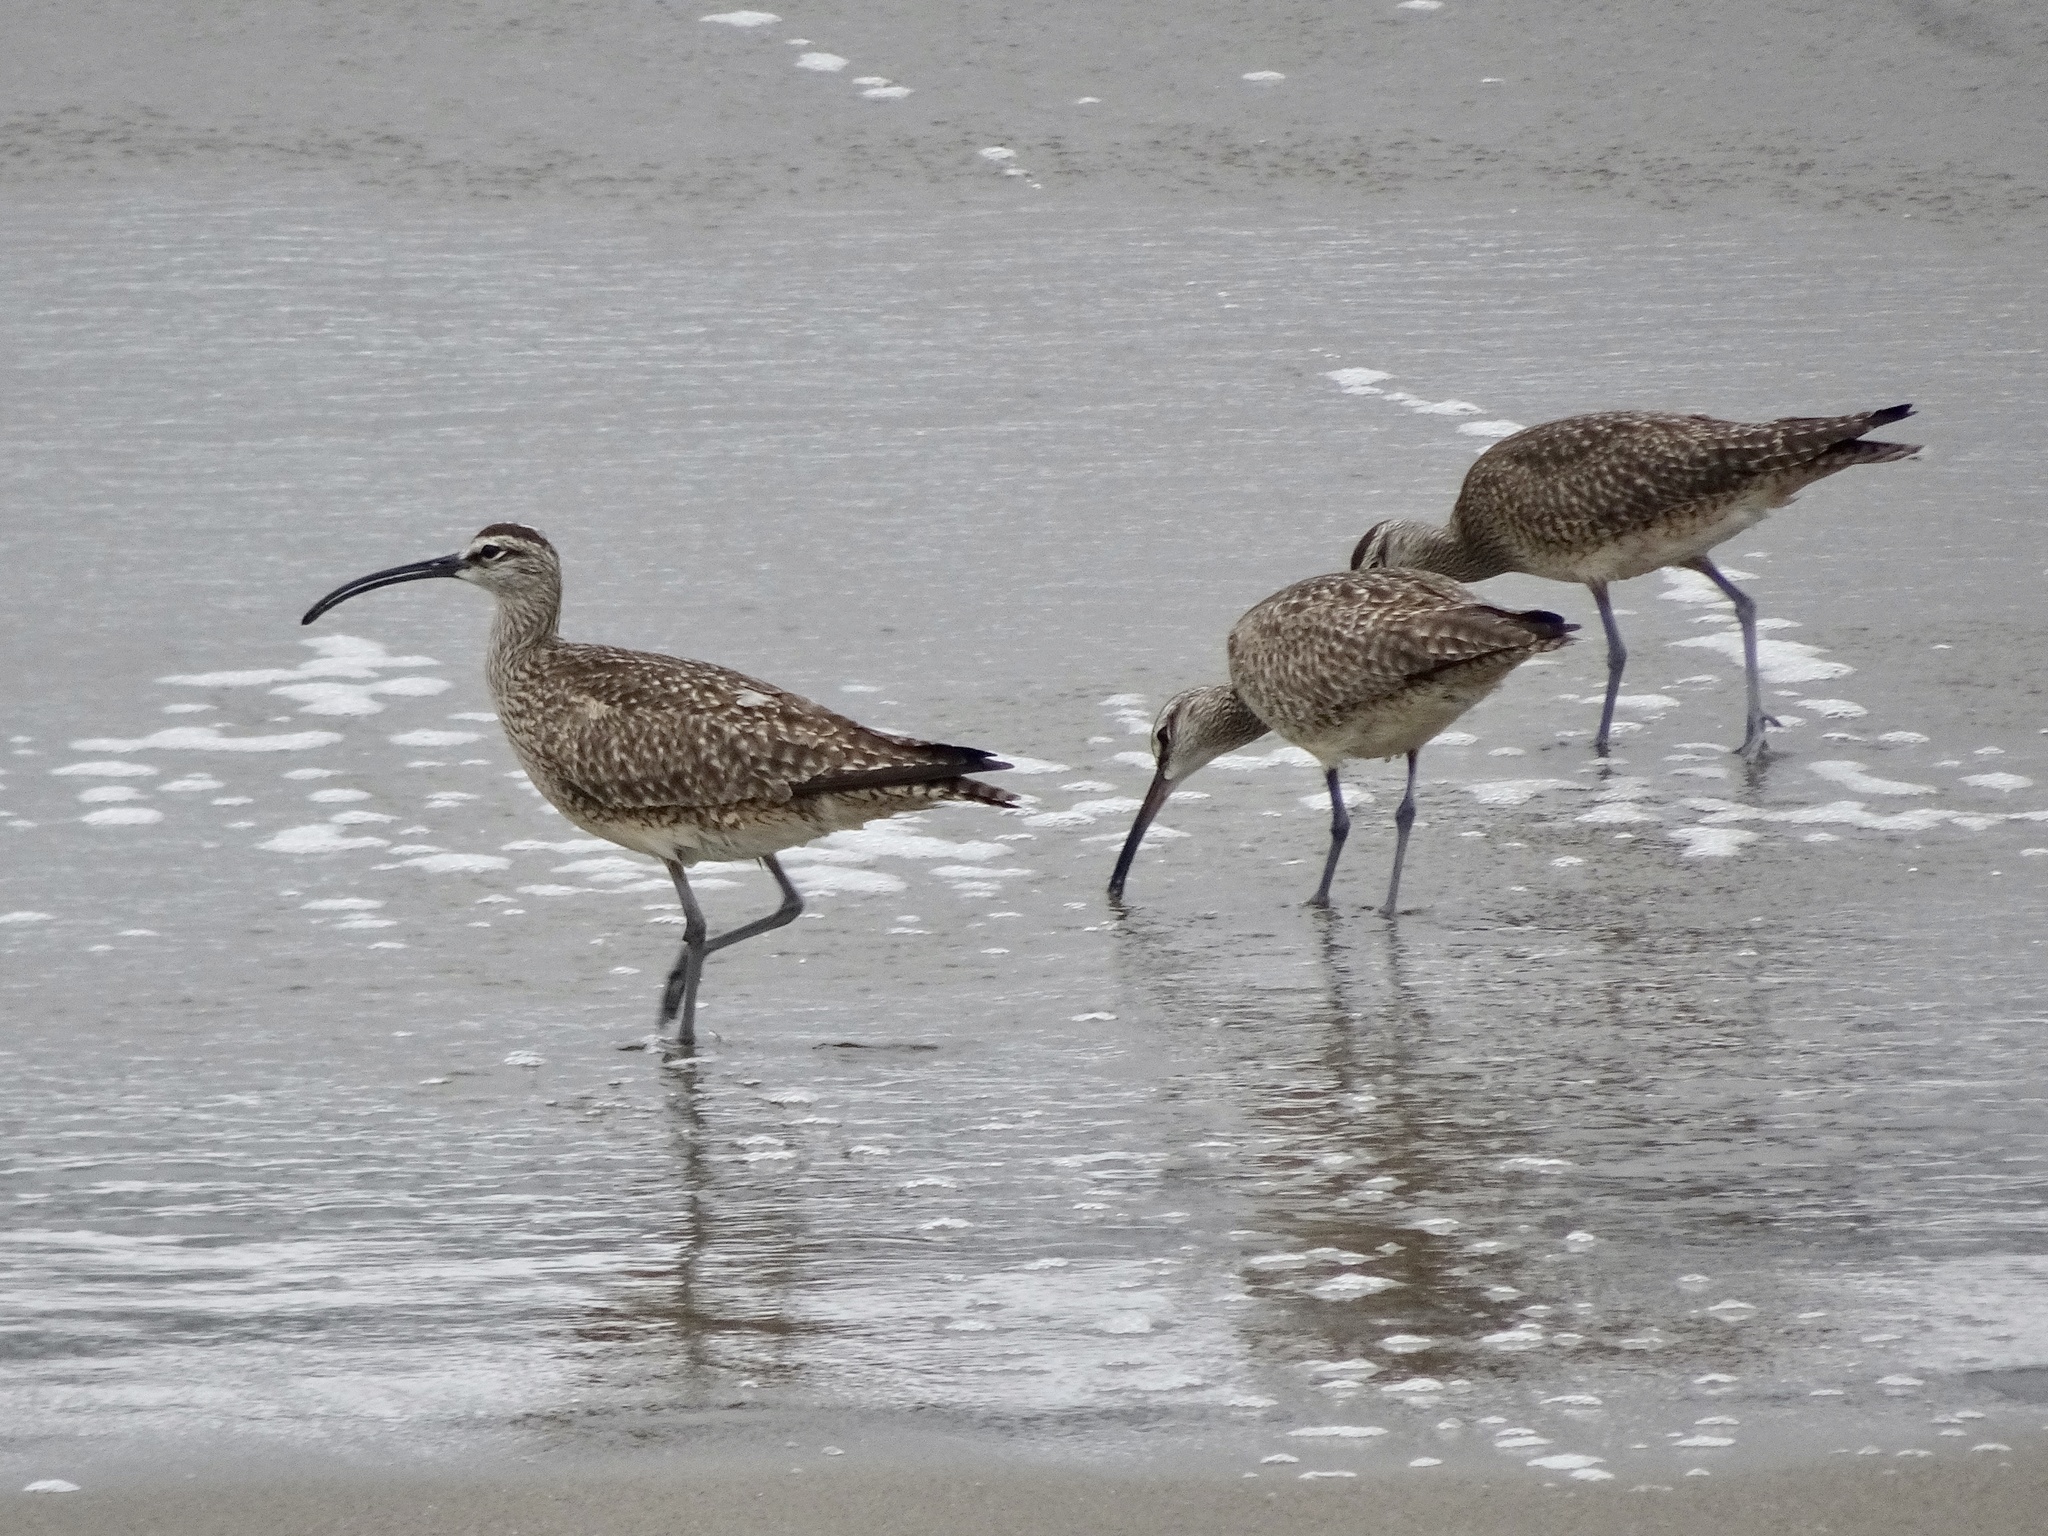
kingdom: Animalia
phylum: Chordata
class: Aves
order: Charadriiformes
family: Scolopacidae
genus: Numenius
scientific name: Numenius phaeopus
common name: Whimbrel
